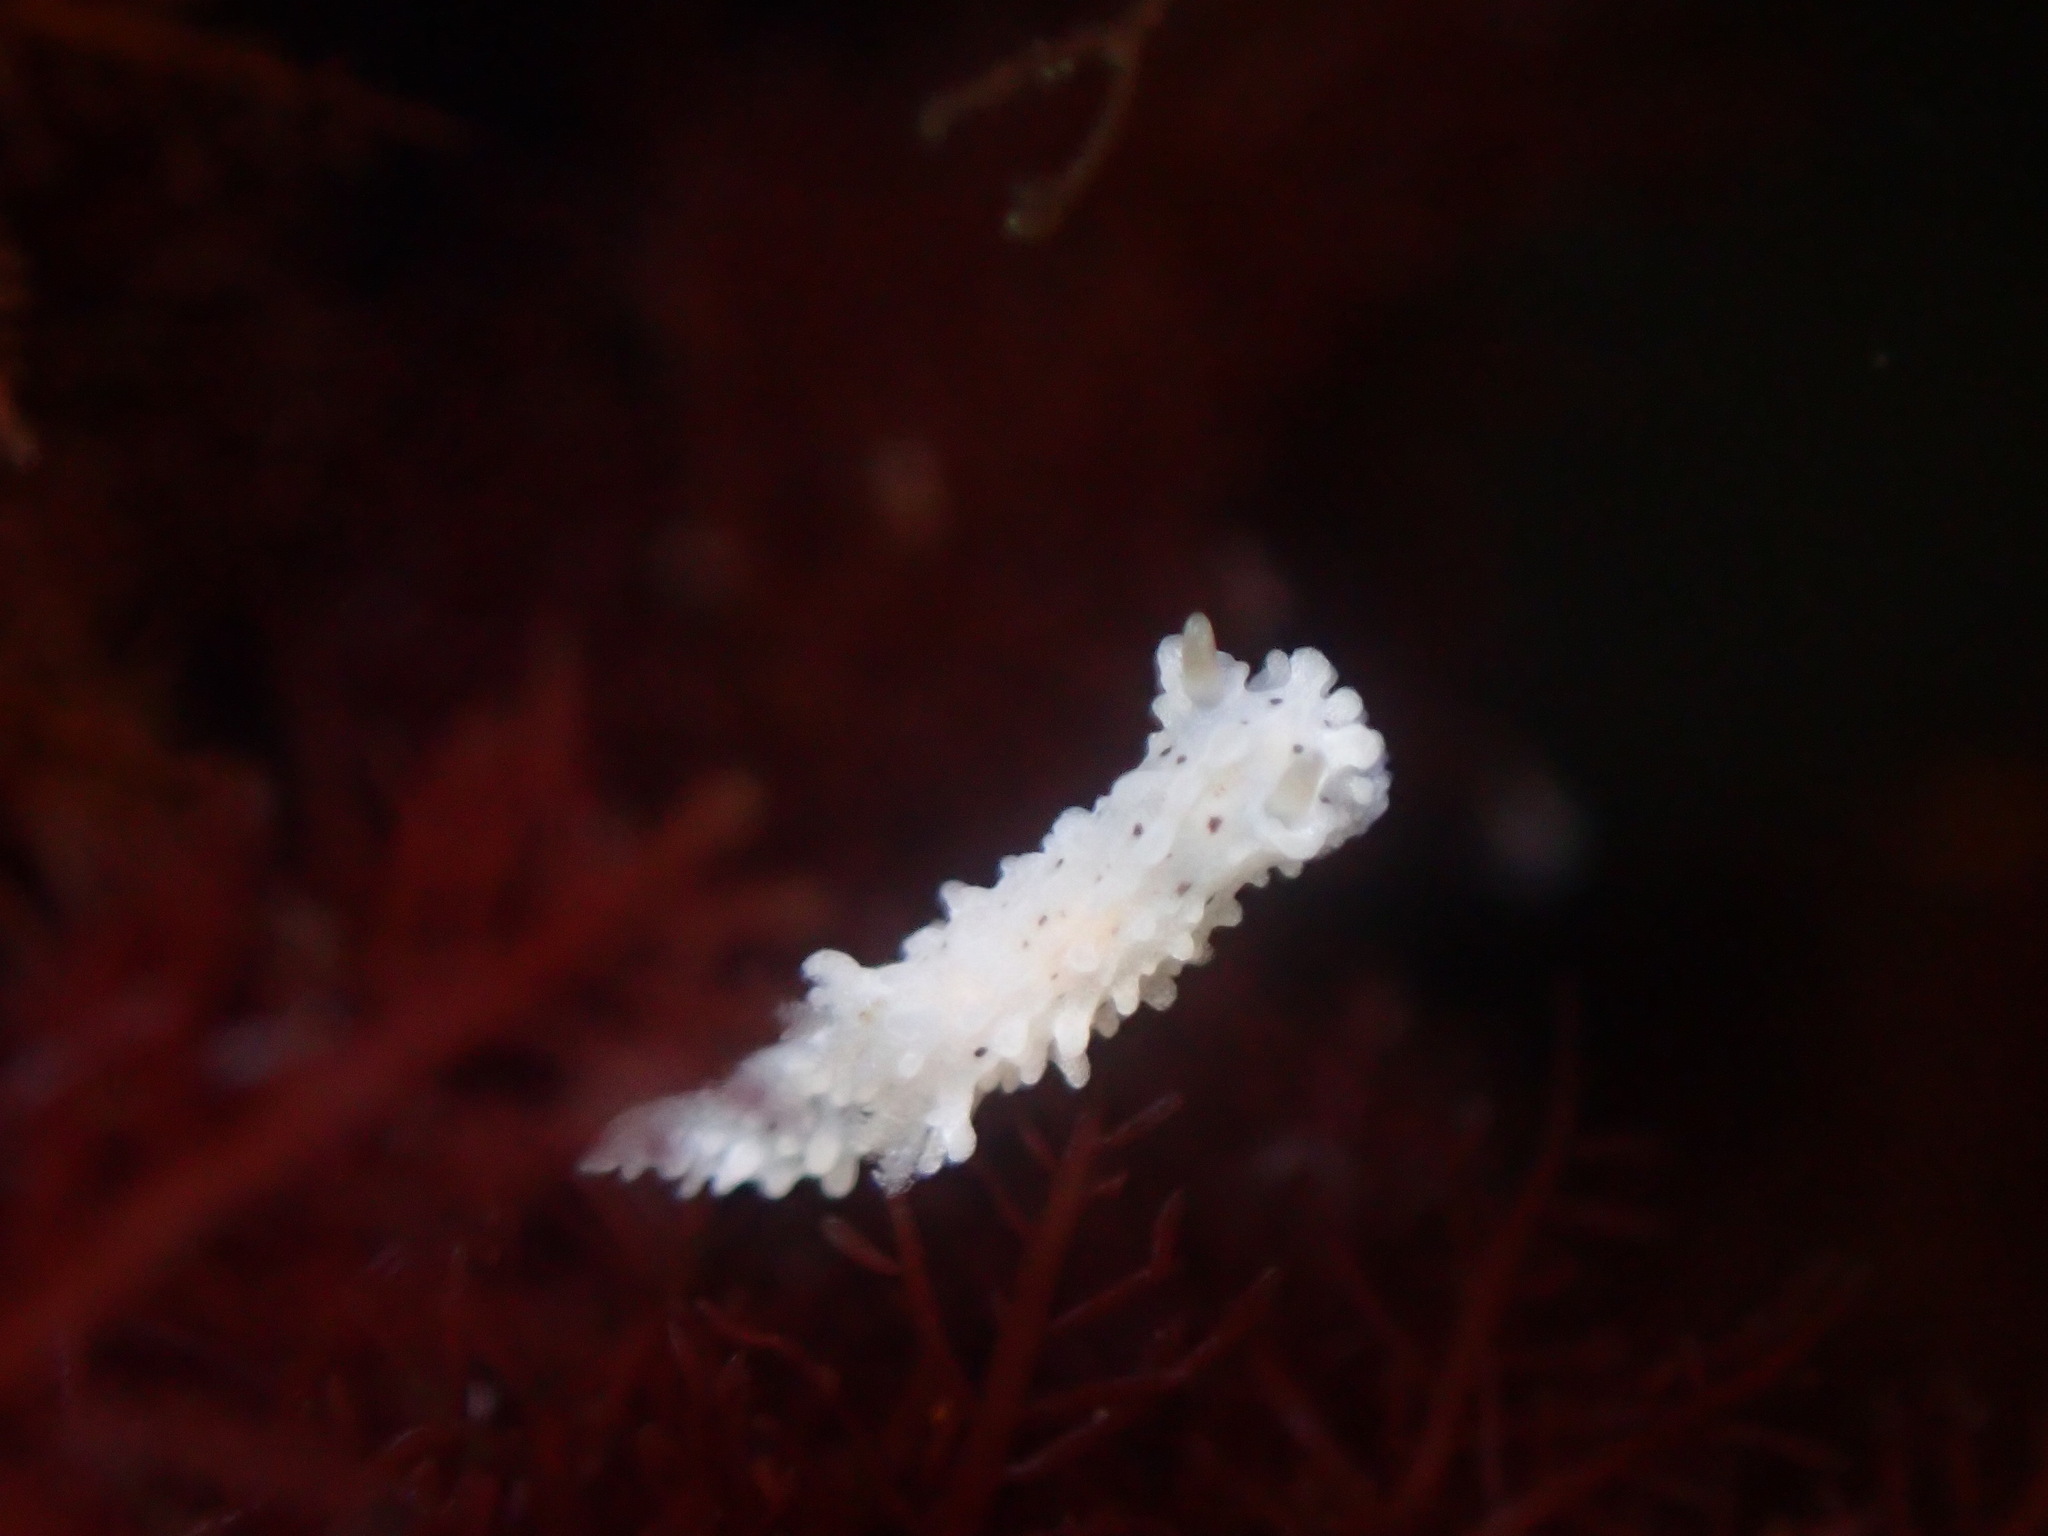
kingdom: Animalia
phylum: Mollusca
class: Gastropoda
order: Nudibranchia
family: Aegiridae
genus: Aegires
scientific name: Aegires albopunctatus
